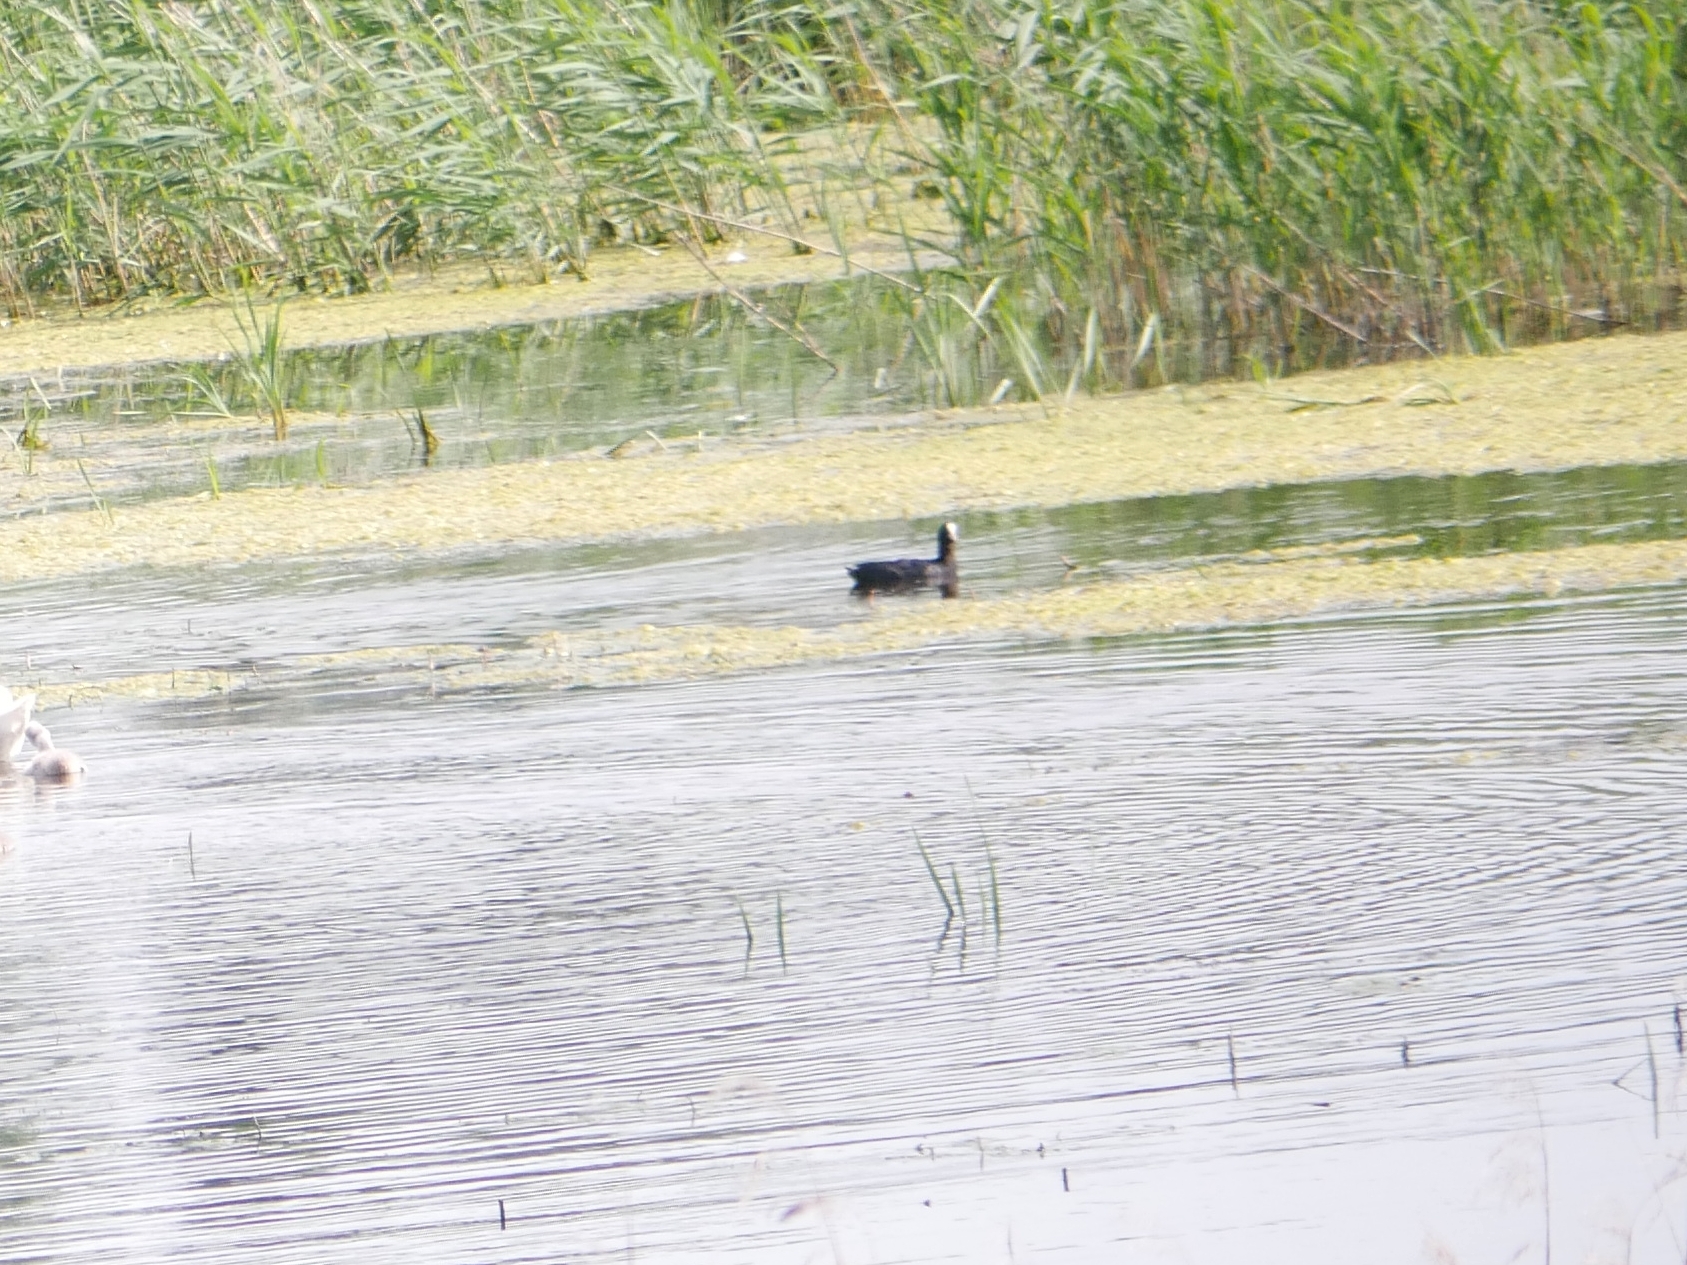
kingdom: Animalia
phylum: Chordata
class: Aves
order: Gruiformes
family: Rallidae
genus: Fulica
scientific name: Fulica atra
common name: Eurasian coot
